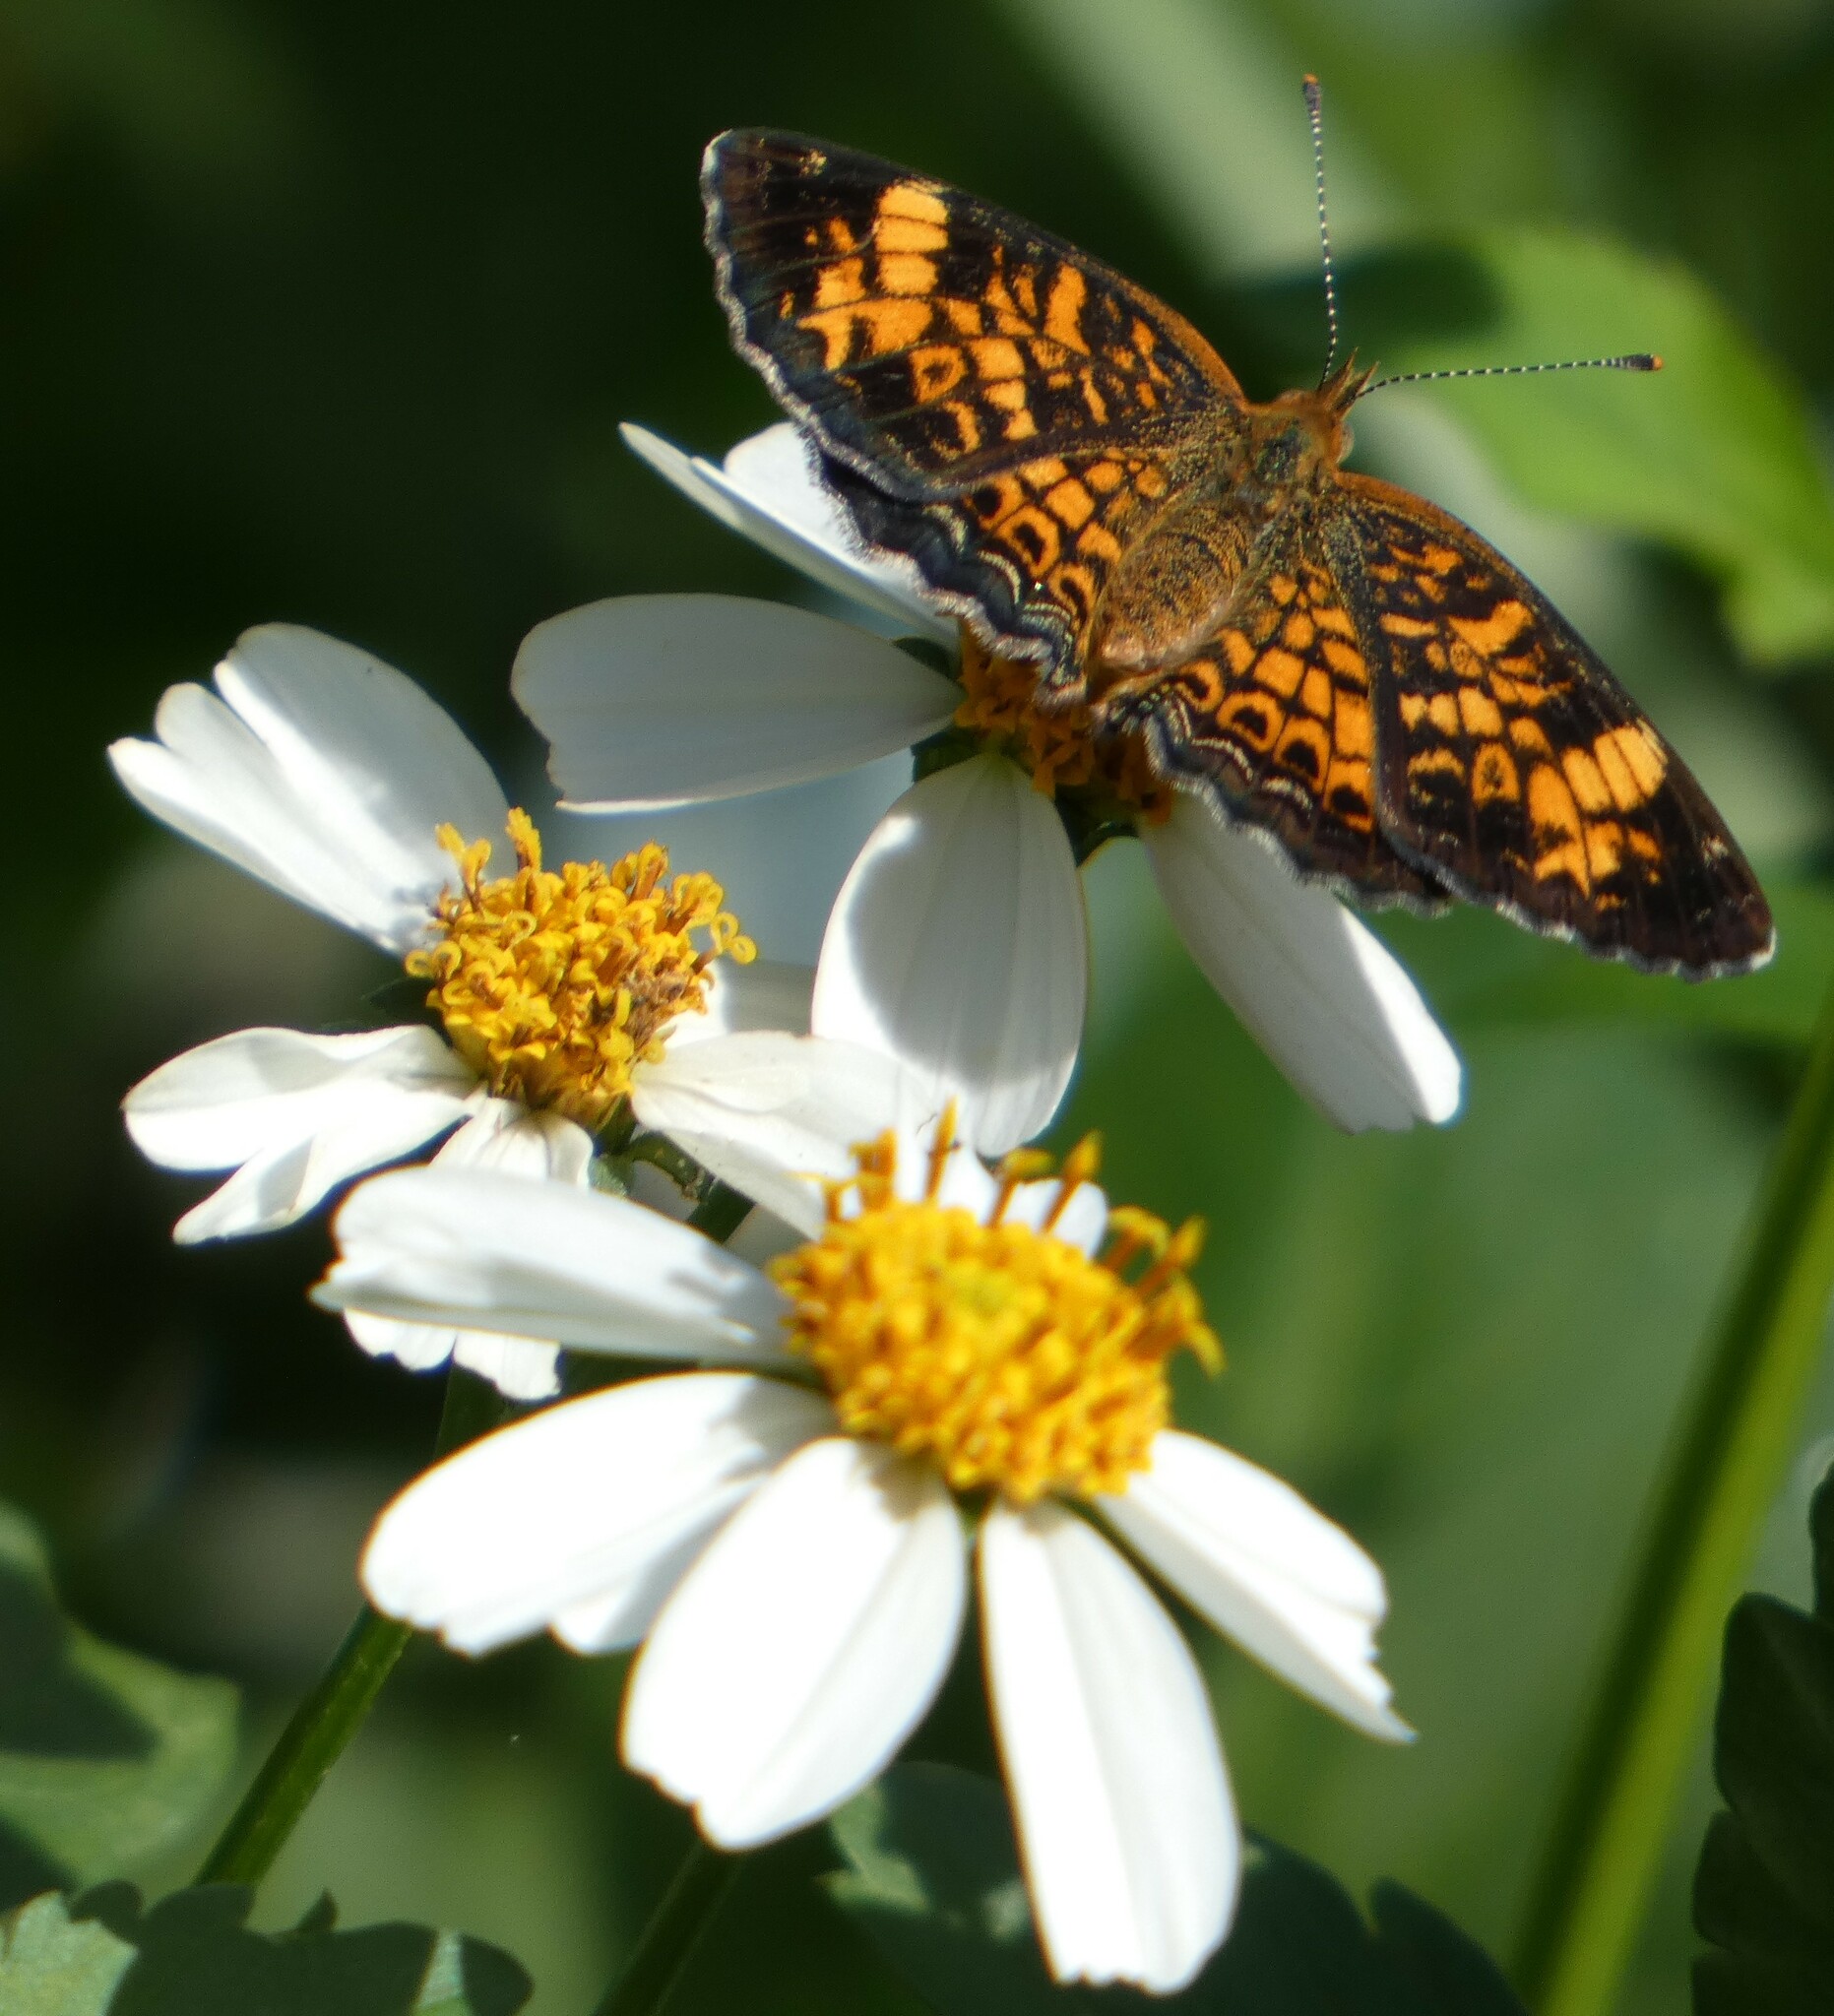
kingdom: Animalia
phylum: Arthropoda
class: Insecta
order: Lepidoptera
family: Nymphalidae
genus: Phyciodes
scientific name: Phyciodes tharos
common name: Pearl crescent
